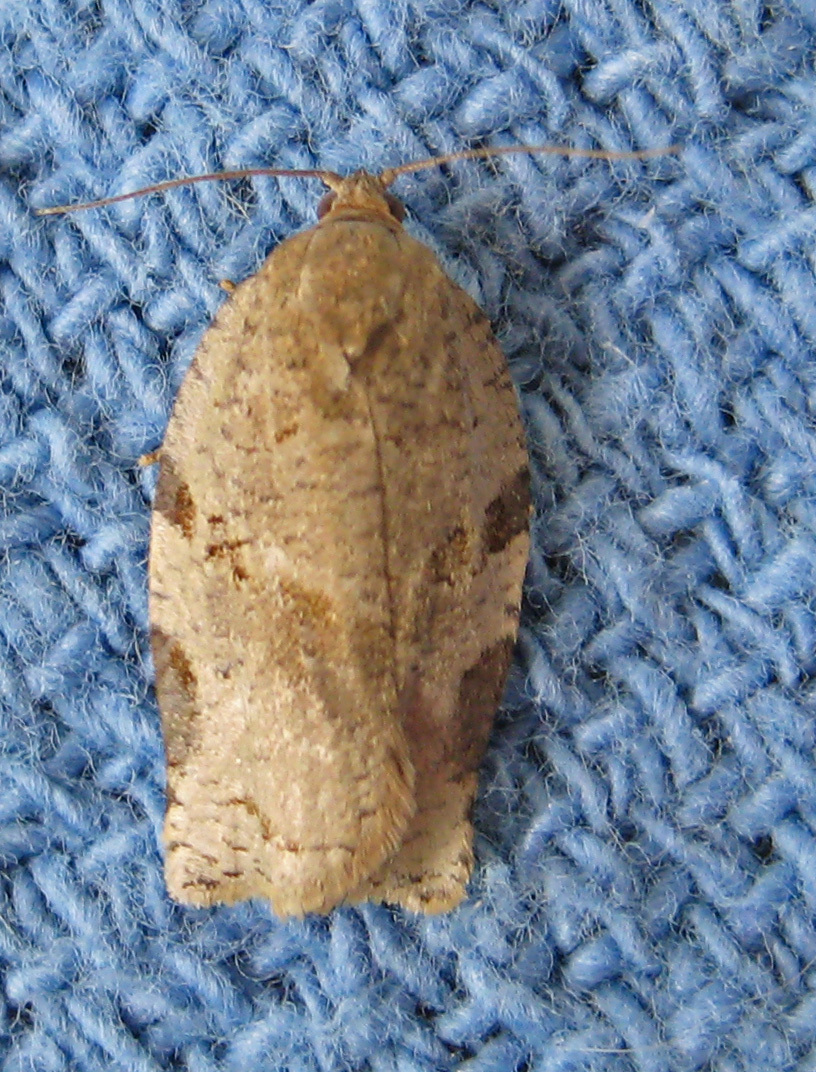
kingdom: Animalia
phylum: Arthropoda
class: Insecta
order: Lepidoptera
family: Tortricidae
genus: Archips
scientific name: Archips grisea
